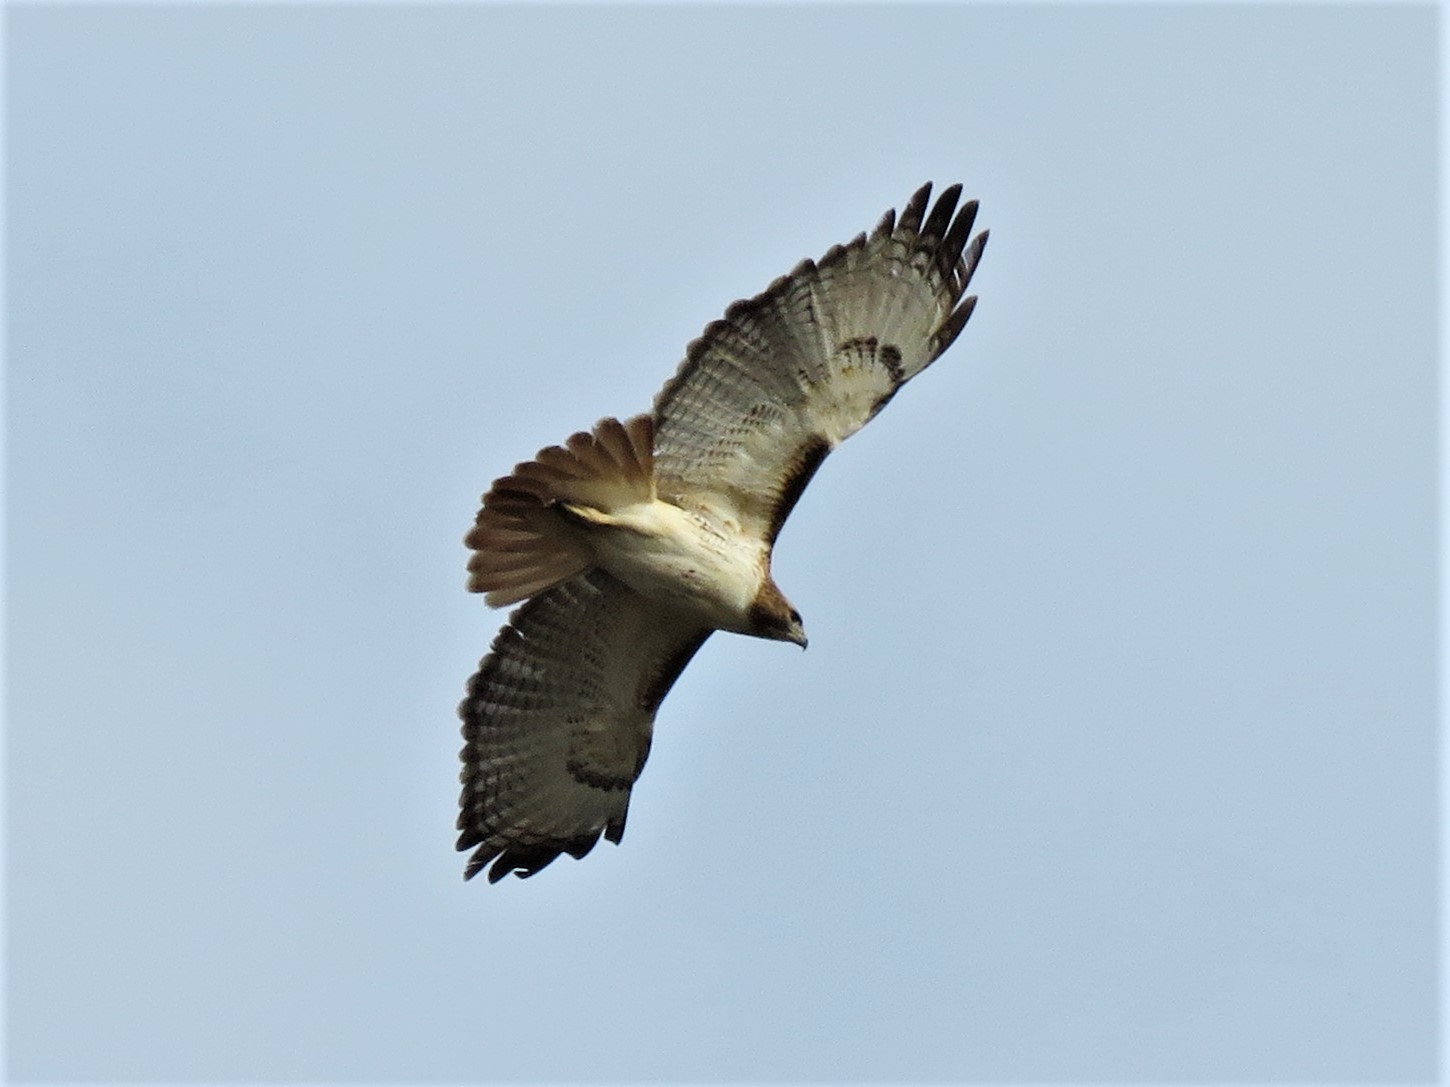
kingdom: Animalia
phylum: Chordata
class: Aves
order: Accipitriformes
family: Accipitridae
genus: Buteo
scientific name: Buteo jamaicensis
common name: Red-tailed hawk
